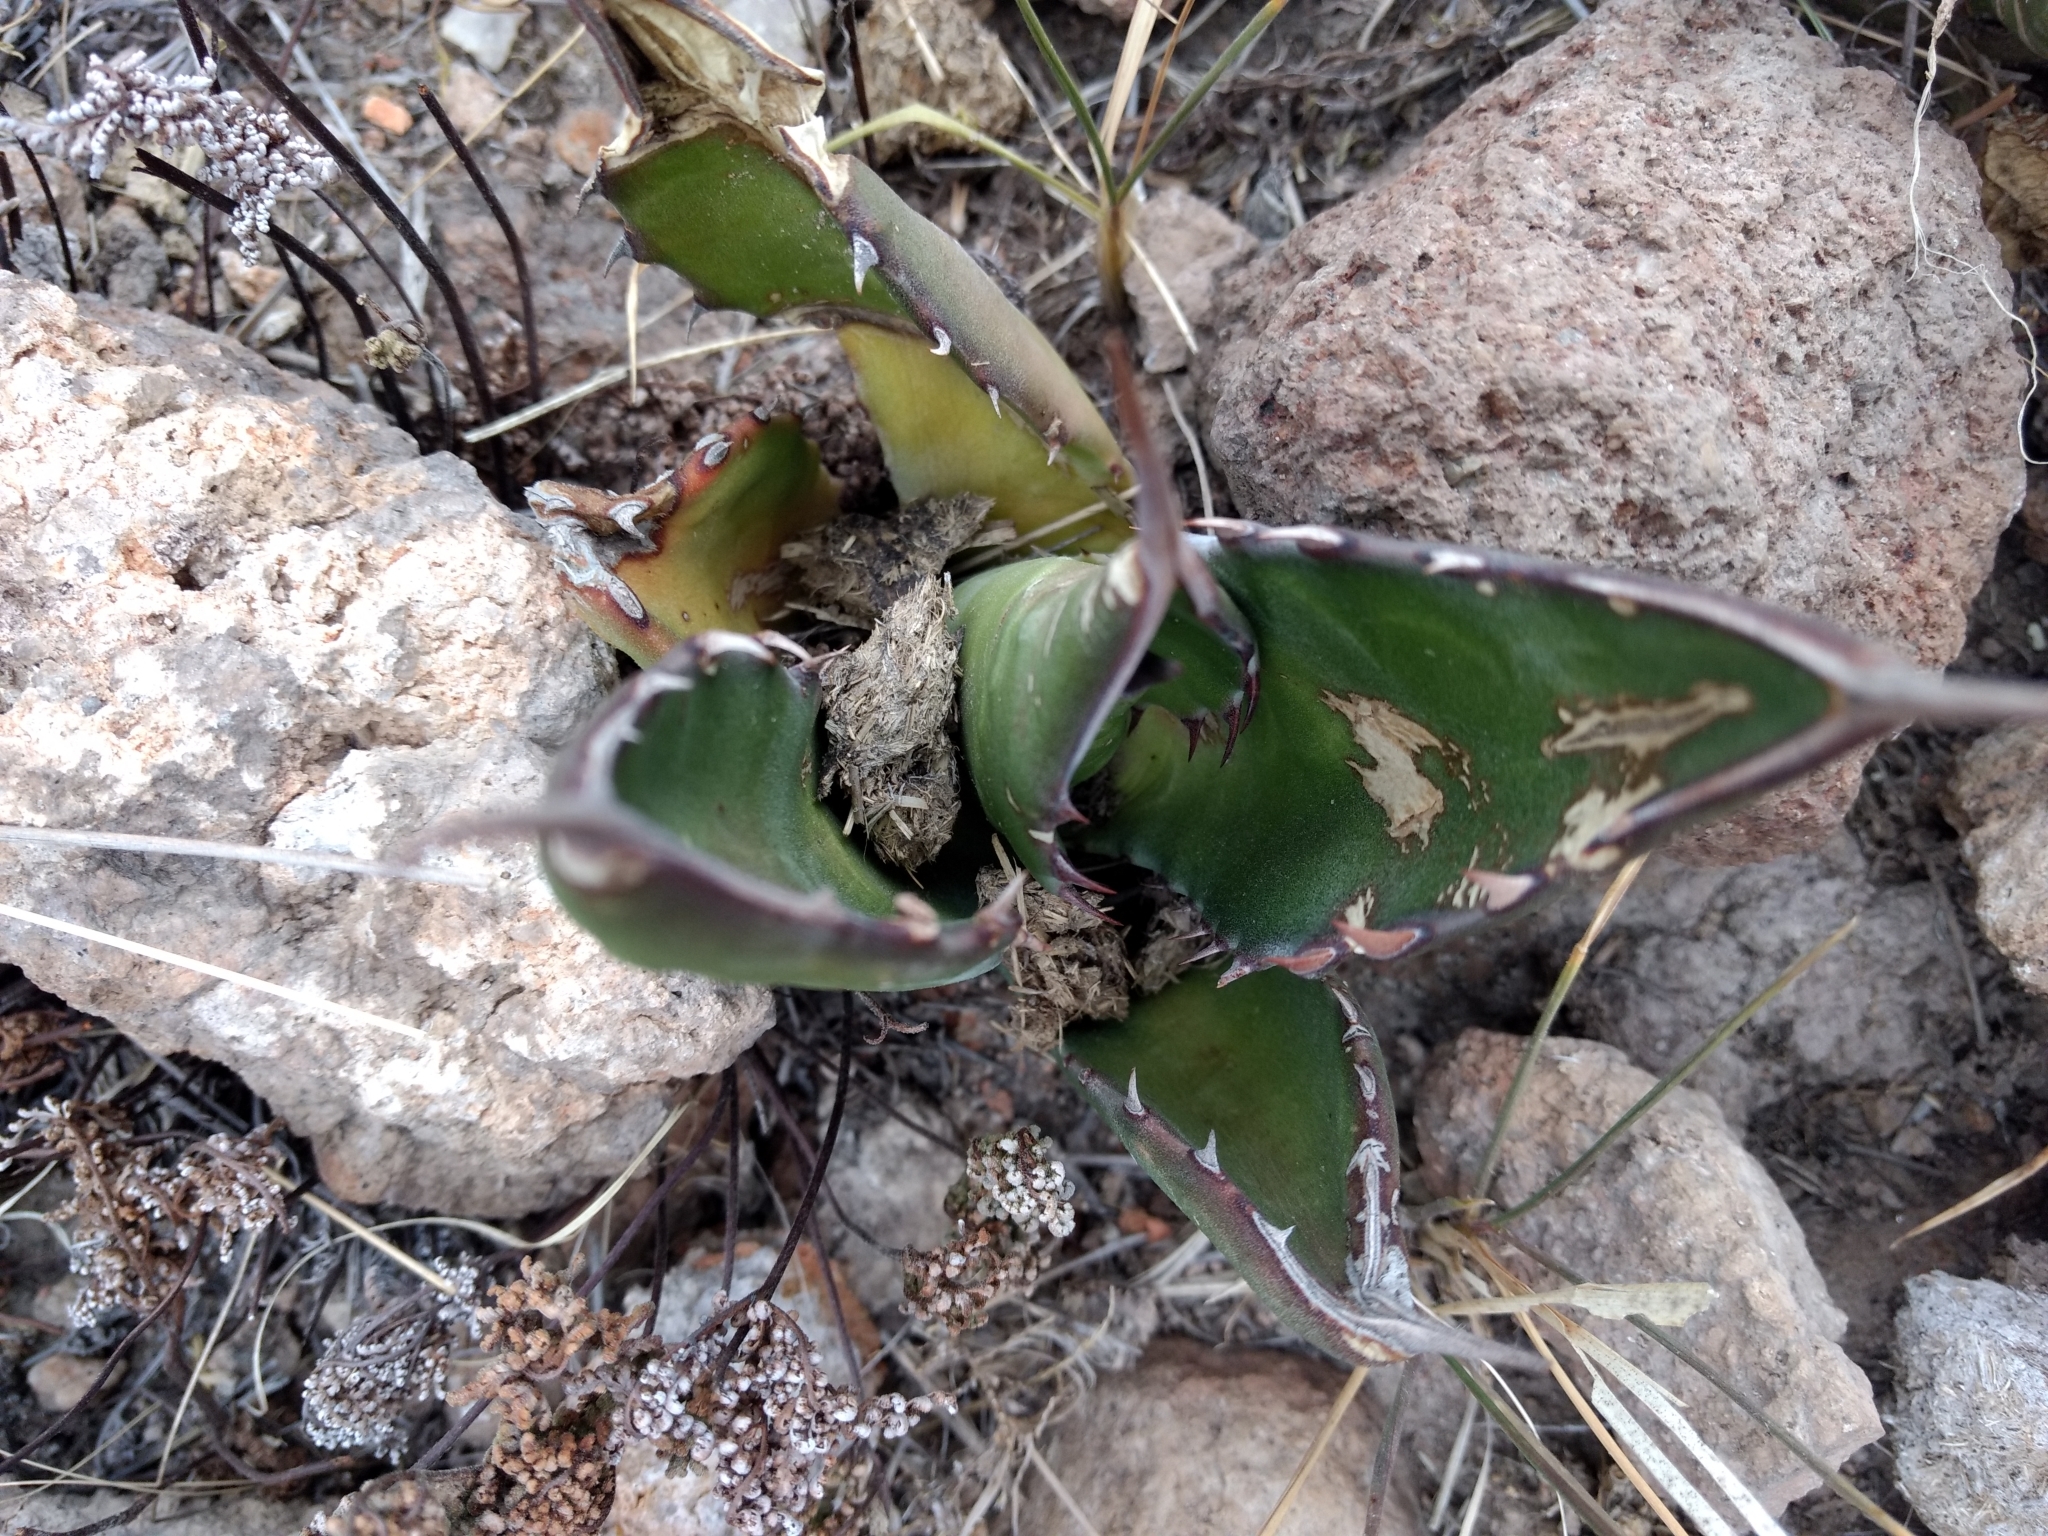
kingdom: Plantae
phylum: Tracheophyta
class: Liliopsida
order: Asparagales
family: Asparagaceae
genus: Agave
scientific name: Agave salmiana
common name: Pulque agave
